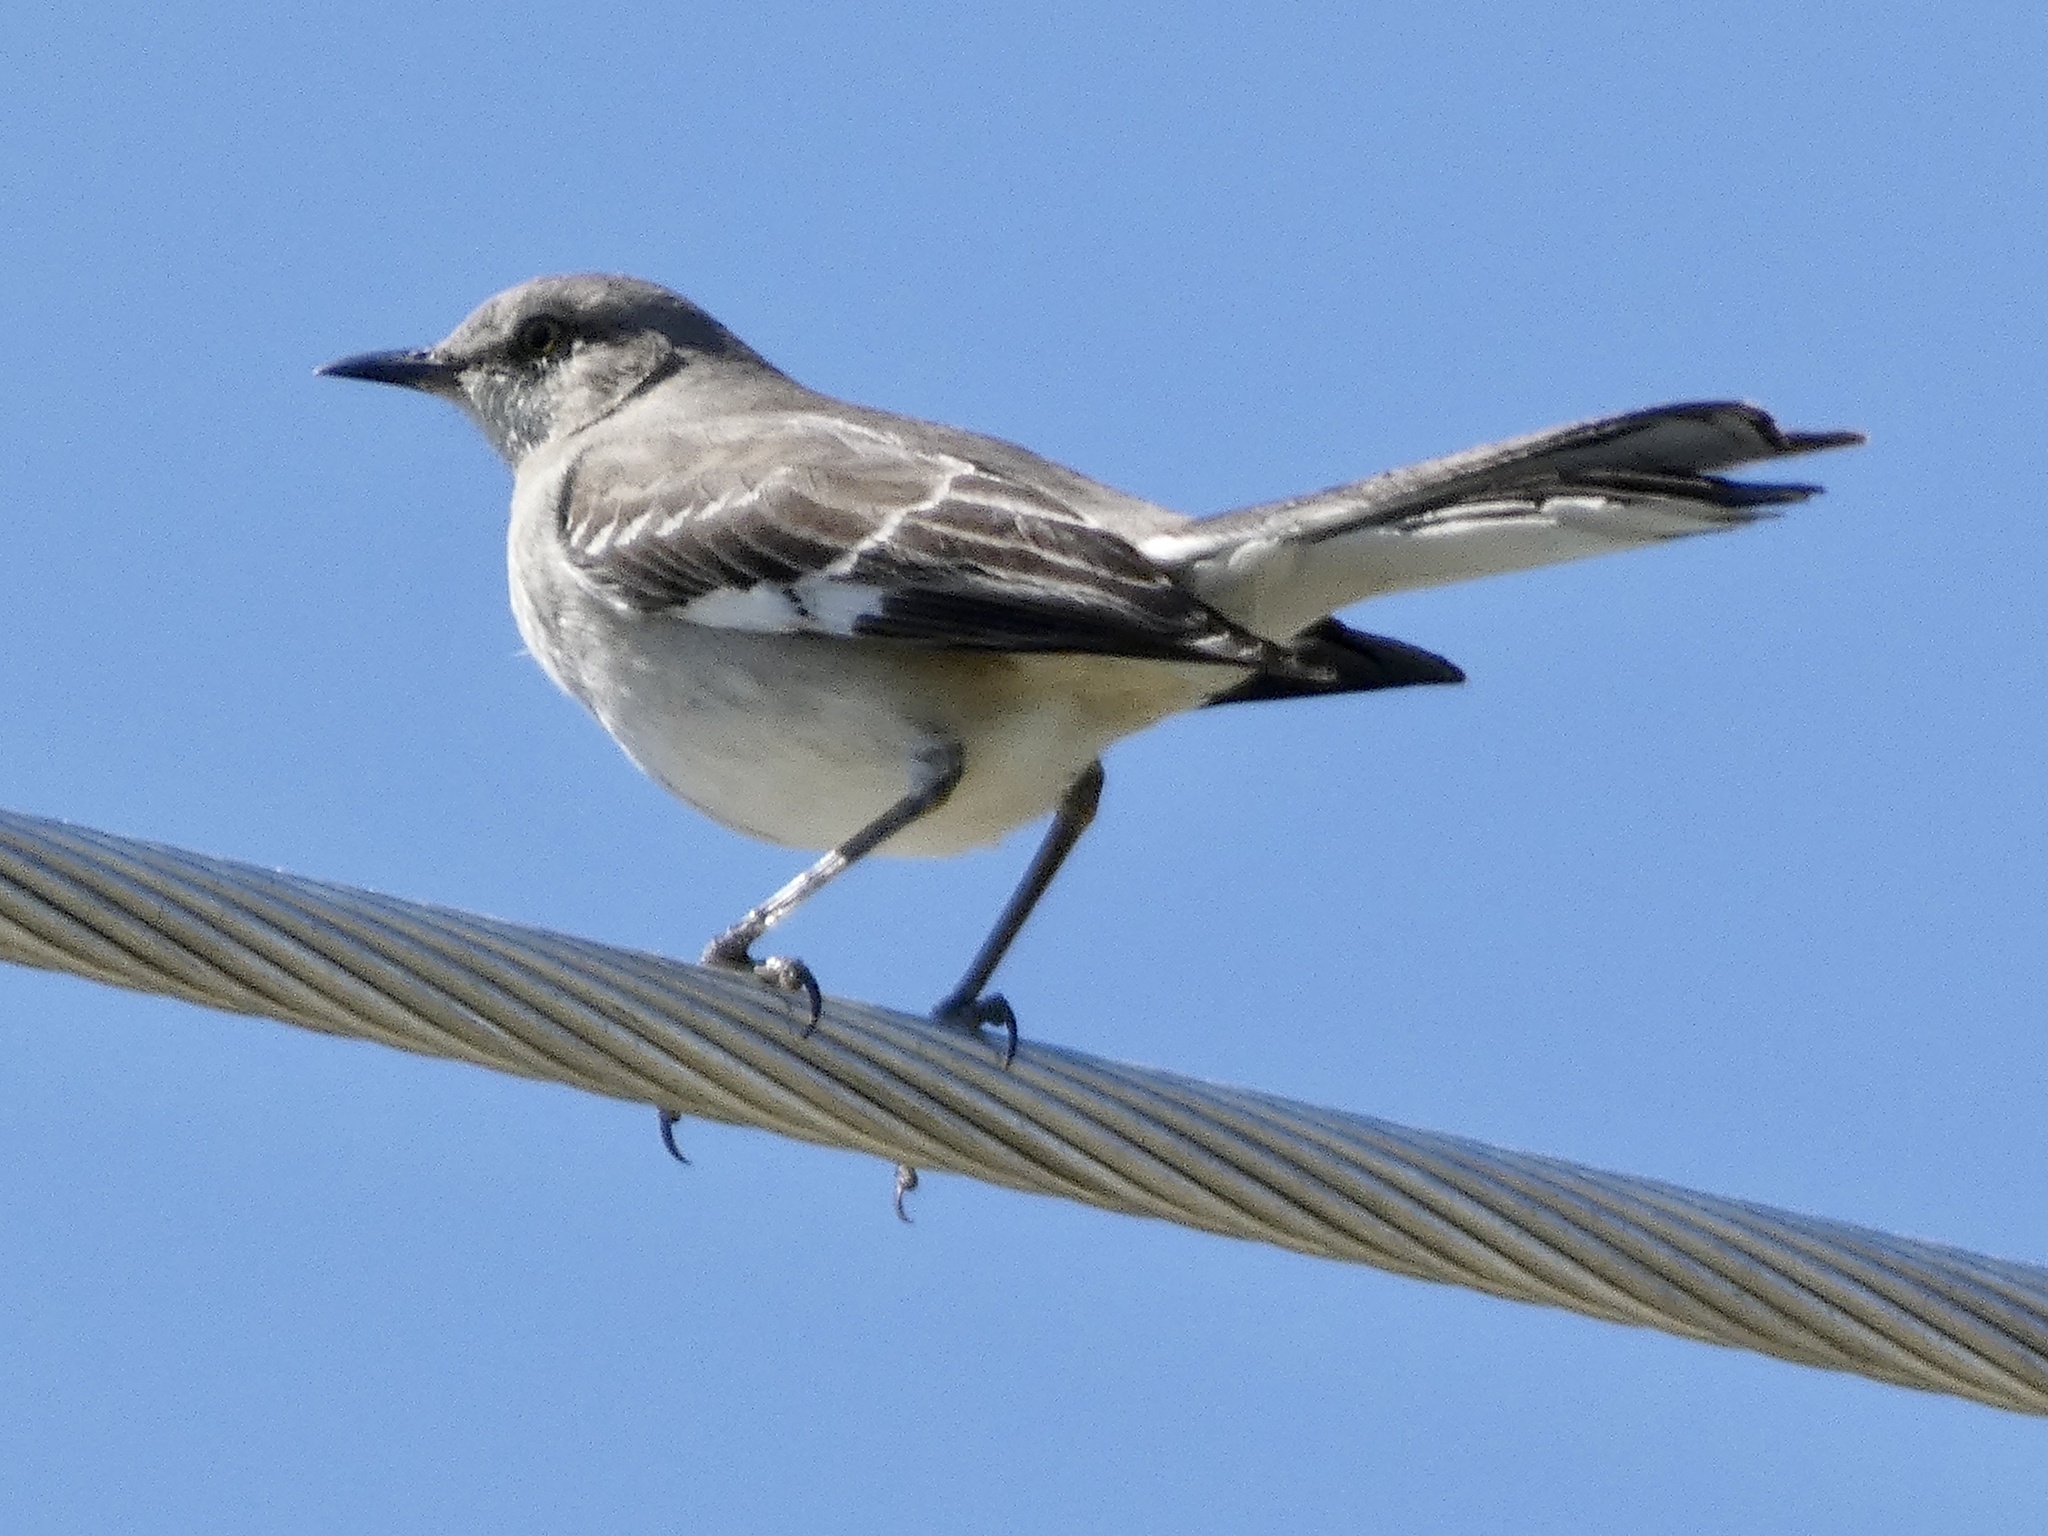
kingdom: Animalia
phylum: Chordata
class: Aves
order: Passeriformes
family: Mimidae
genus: Mimus
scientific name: Mimus polyglottos
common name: Northern mockingbird
